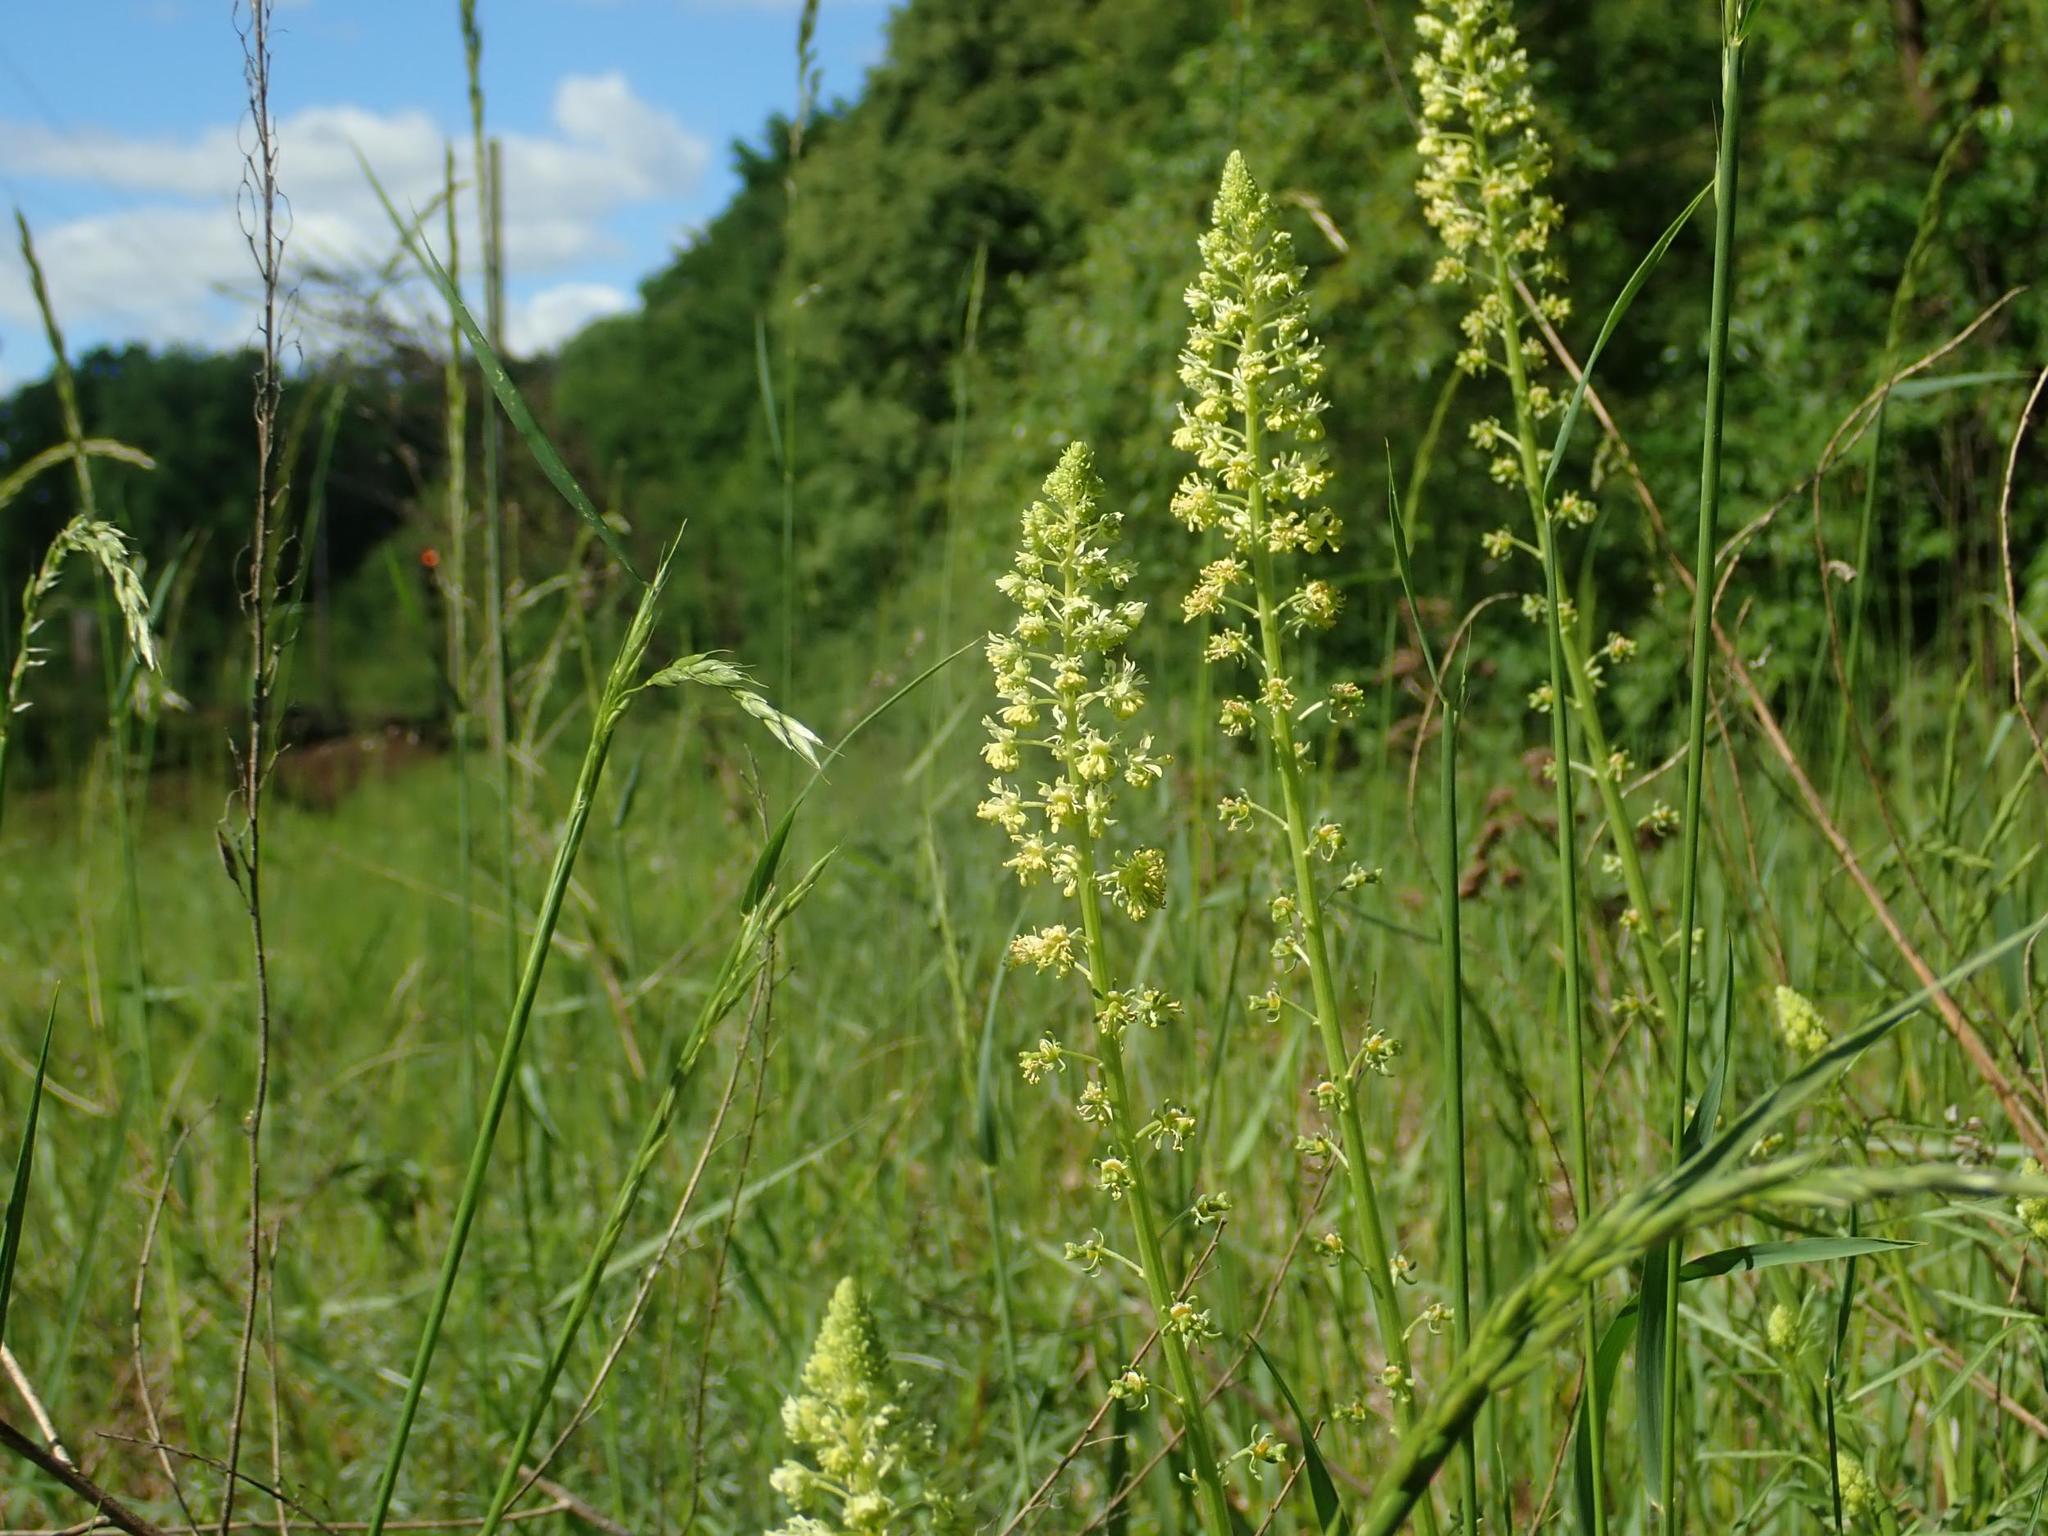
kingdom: Plantae
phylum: Tracheophyta
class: Magnoliopsida
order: Brassicales
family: Resedaceae
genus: Reseda
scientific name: Reseda lutea
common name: Wild mignonette
